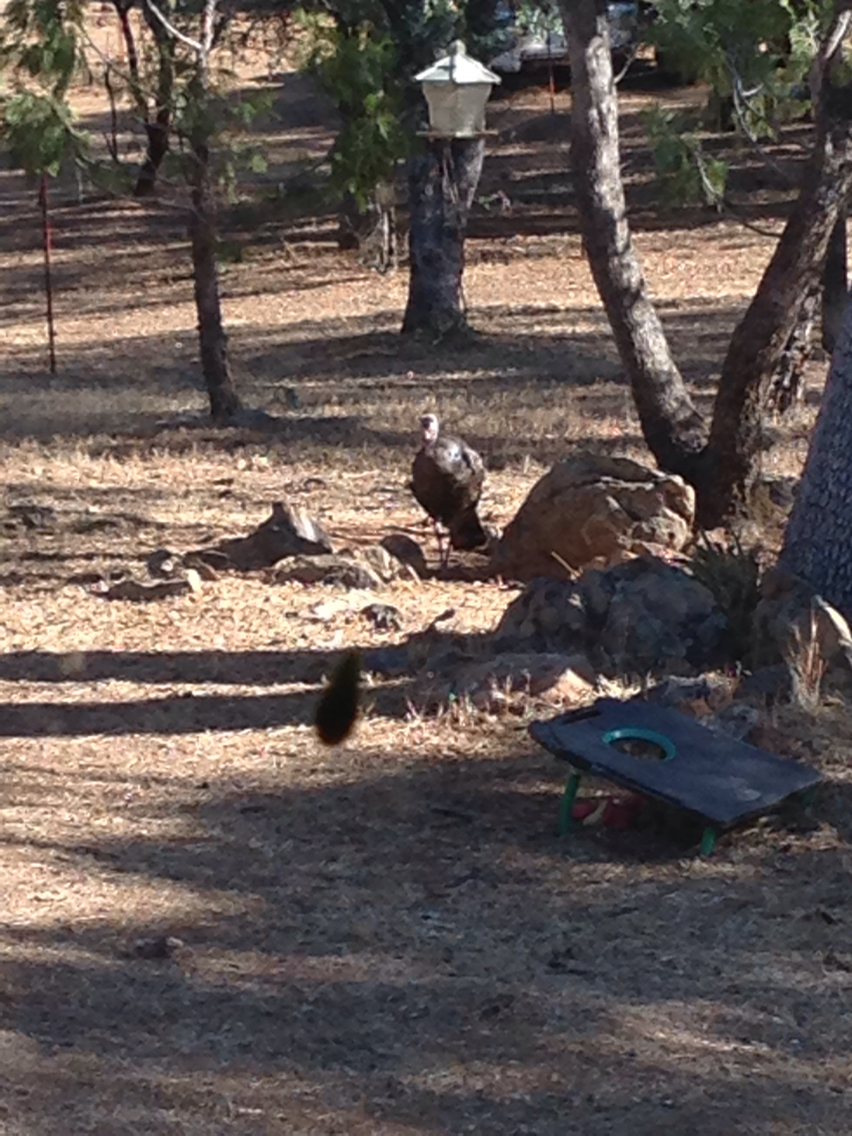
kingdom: Animalia
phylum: Chordata
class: Aves
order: Galliformes
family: Phasianidae
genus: Meleagris
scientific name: Meleagris gallopavo
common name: Wild turkey
